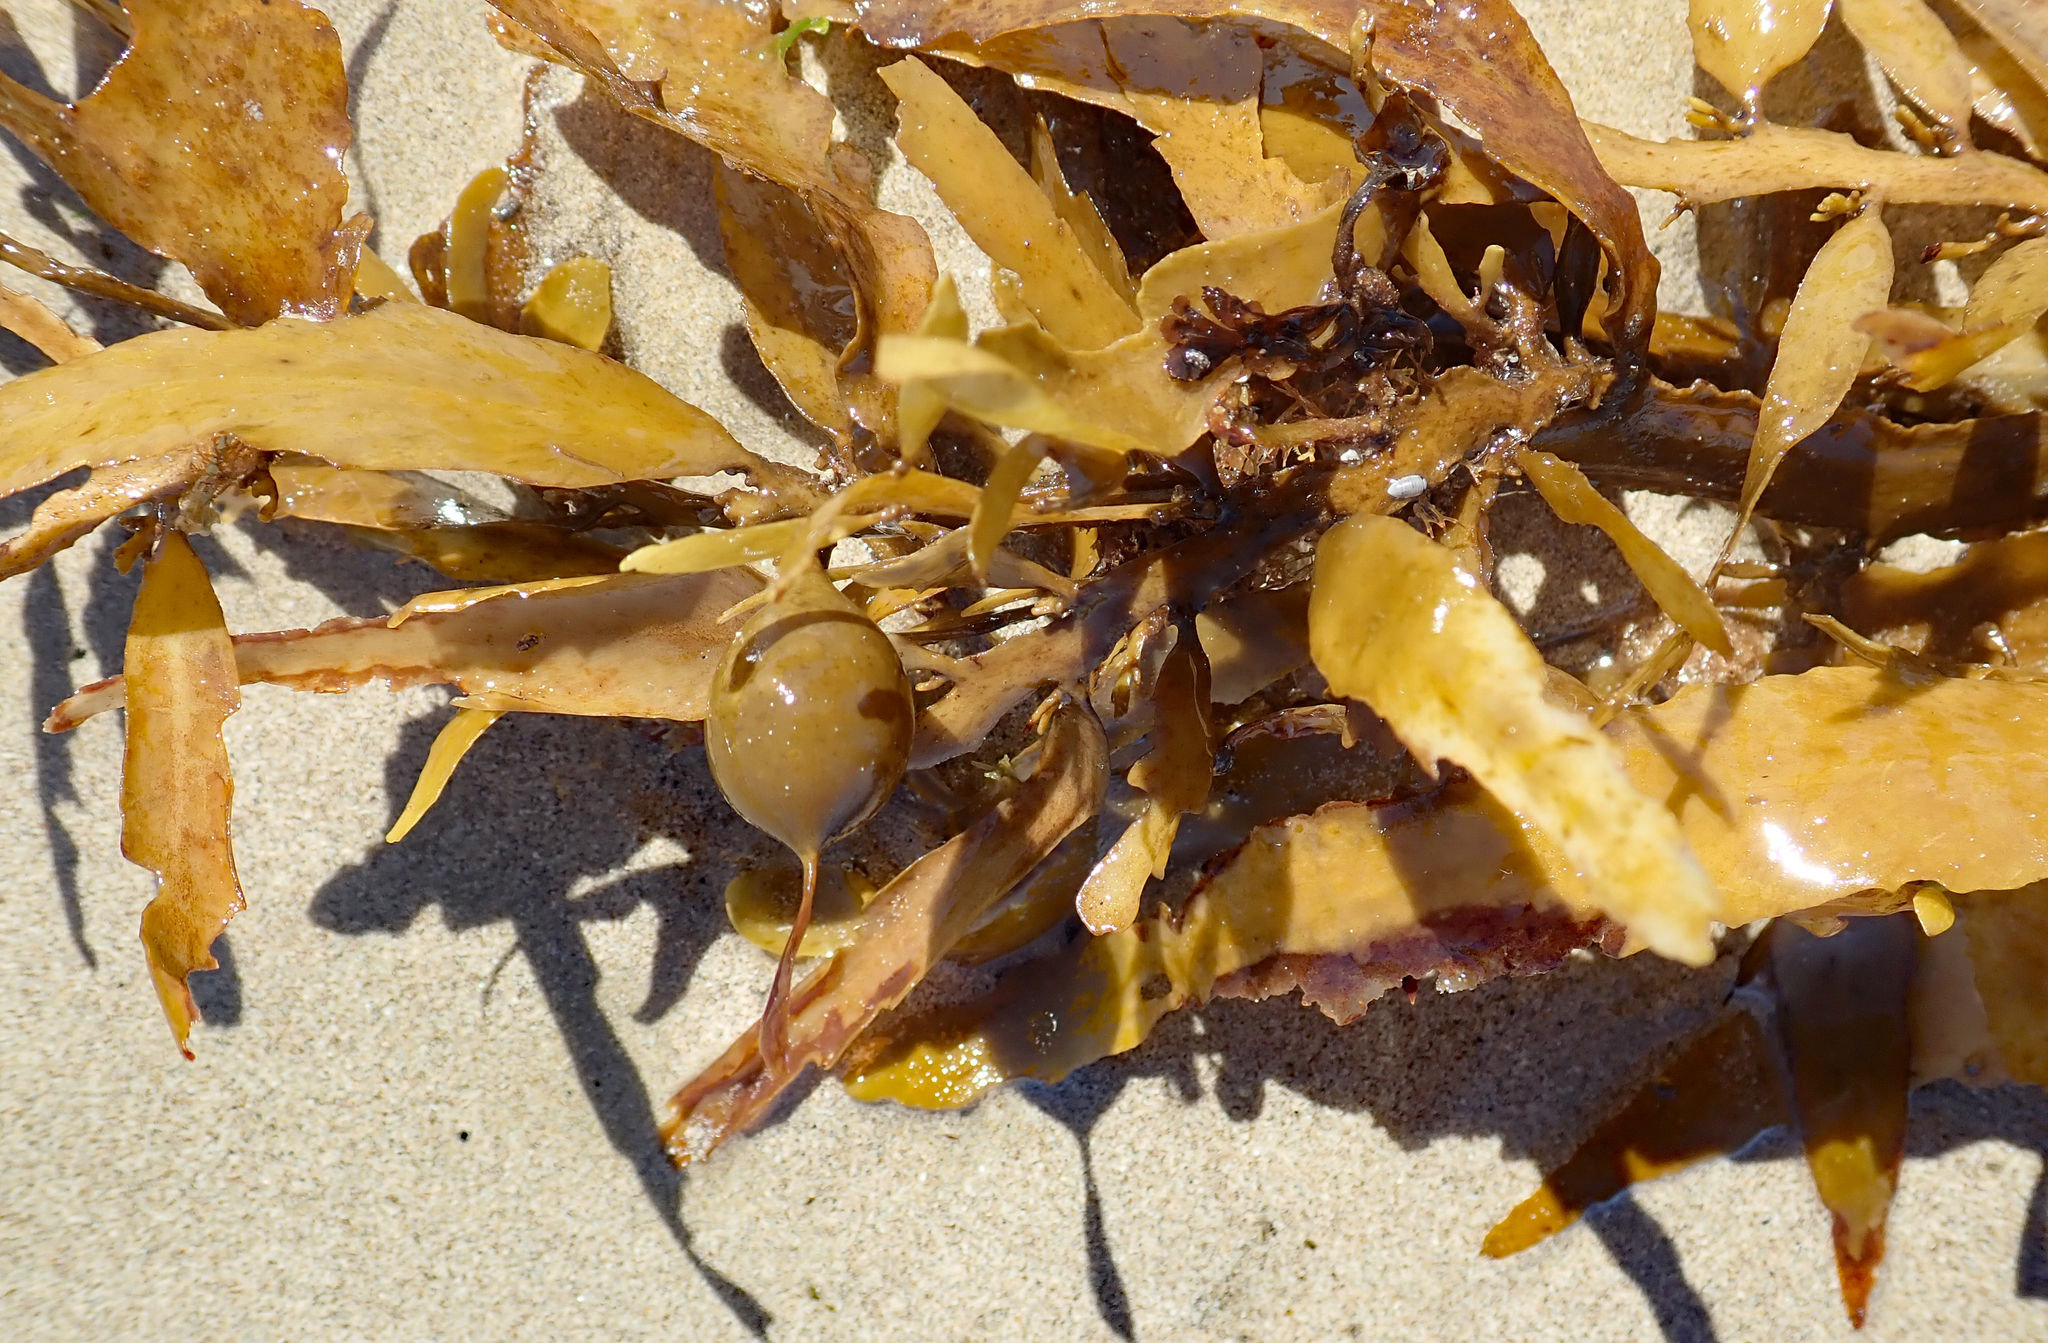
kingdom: Chromista
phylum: Ochrophyta
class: Phaeophyceae
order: Fucales
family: Sargassaceae
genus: Carpophyllum
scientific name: Carpophyllum flexuosum
